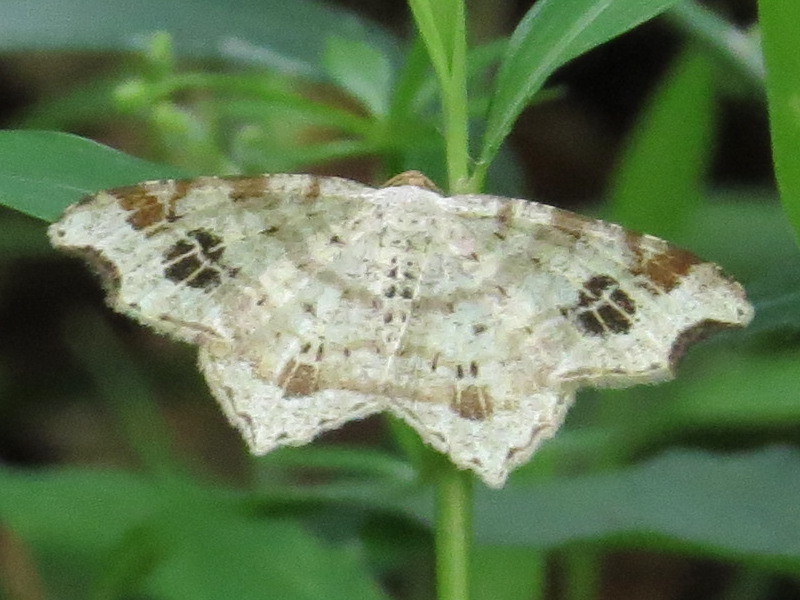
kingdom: Animalia
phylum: Arthropoda
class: Insecta
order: Lepidoptera
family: Geometridae
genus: Macaria
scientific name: Macaria aemulataria
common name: Common angle
